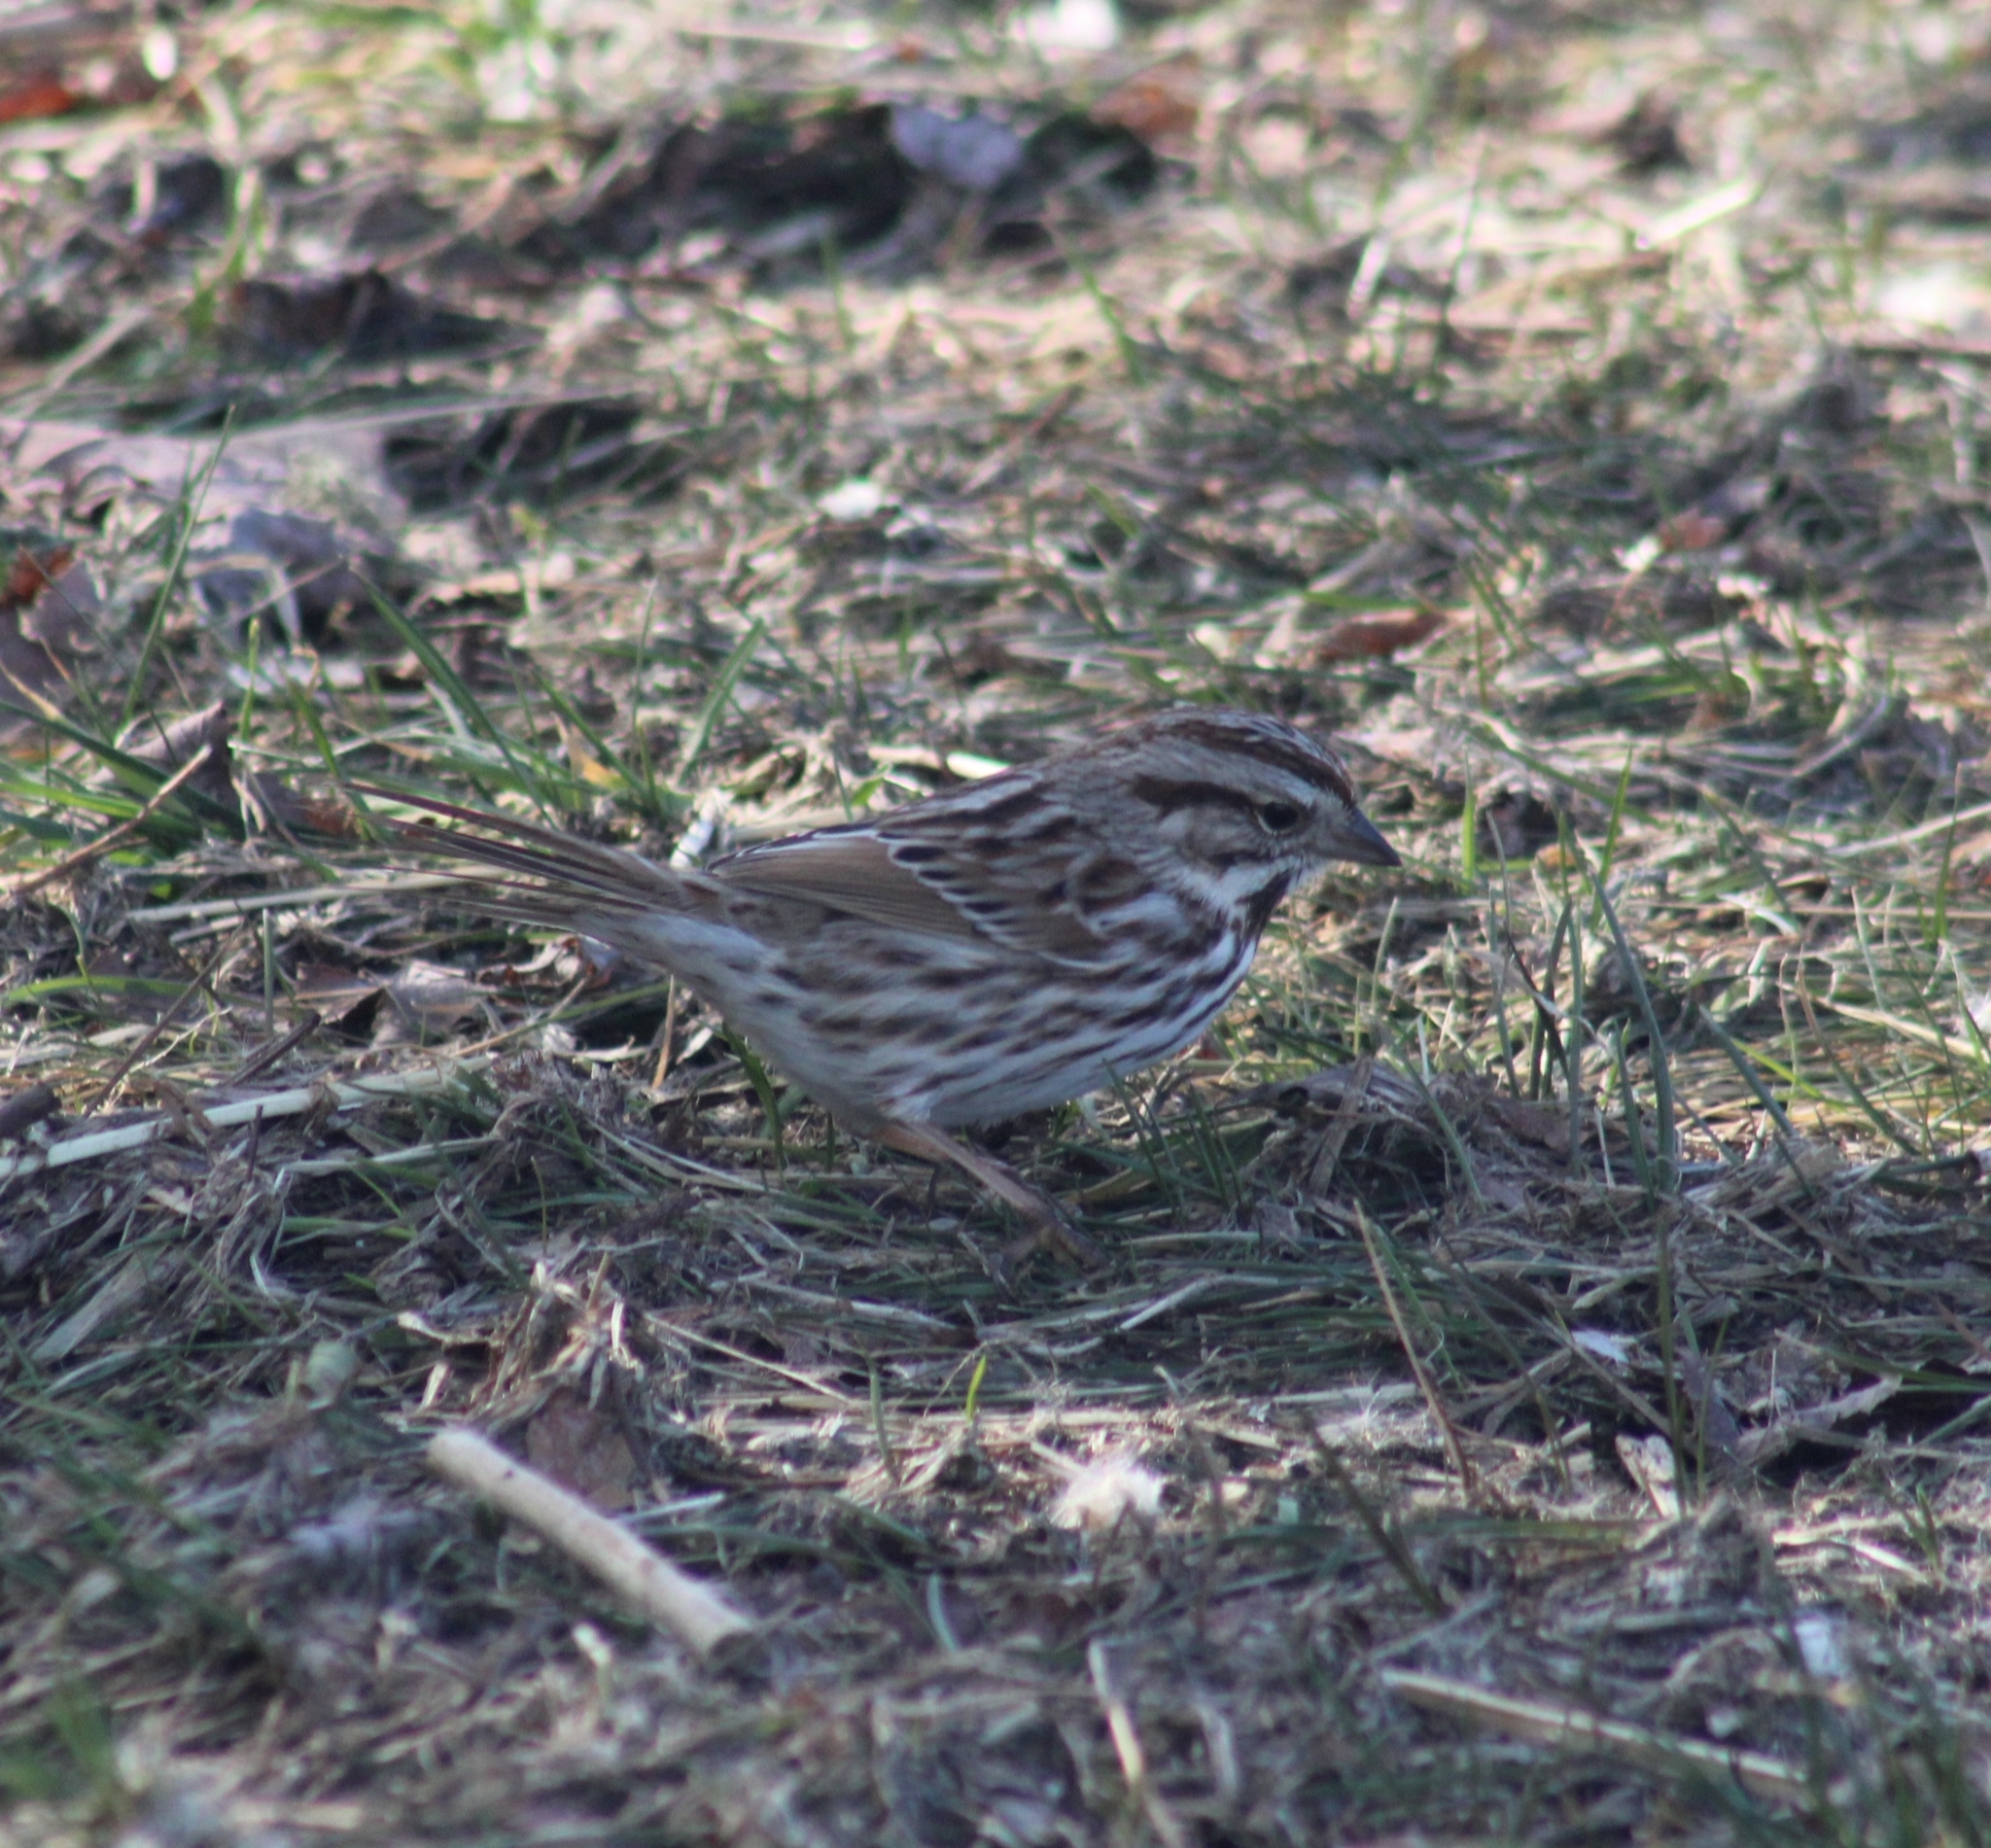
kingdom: Animalia
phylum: Chordata
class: Aves
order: Passeriformes
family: Passerellidae
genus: Melospiza
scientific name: Melospiza melodia
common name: Song sparrow
